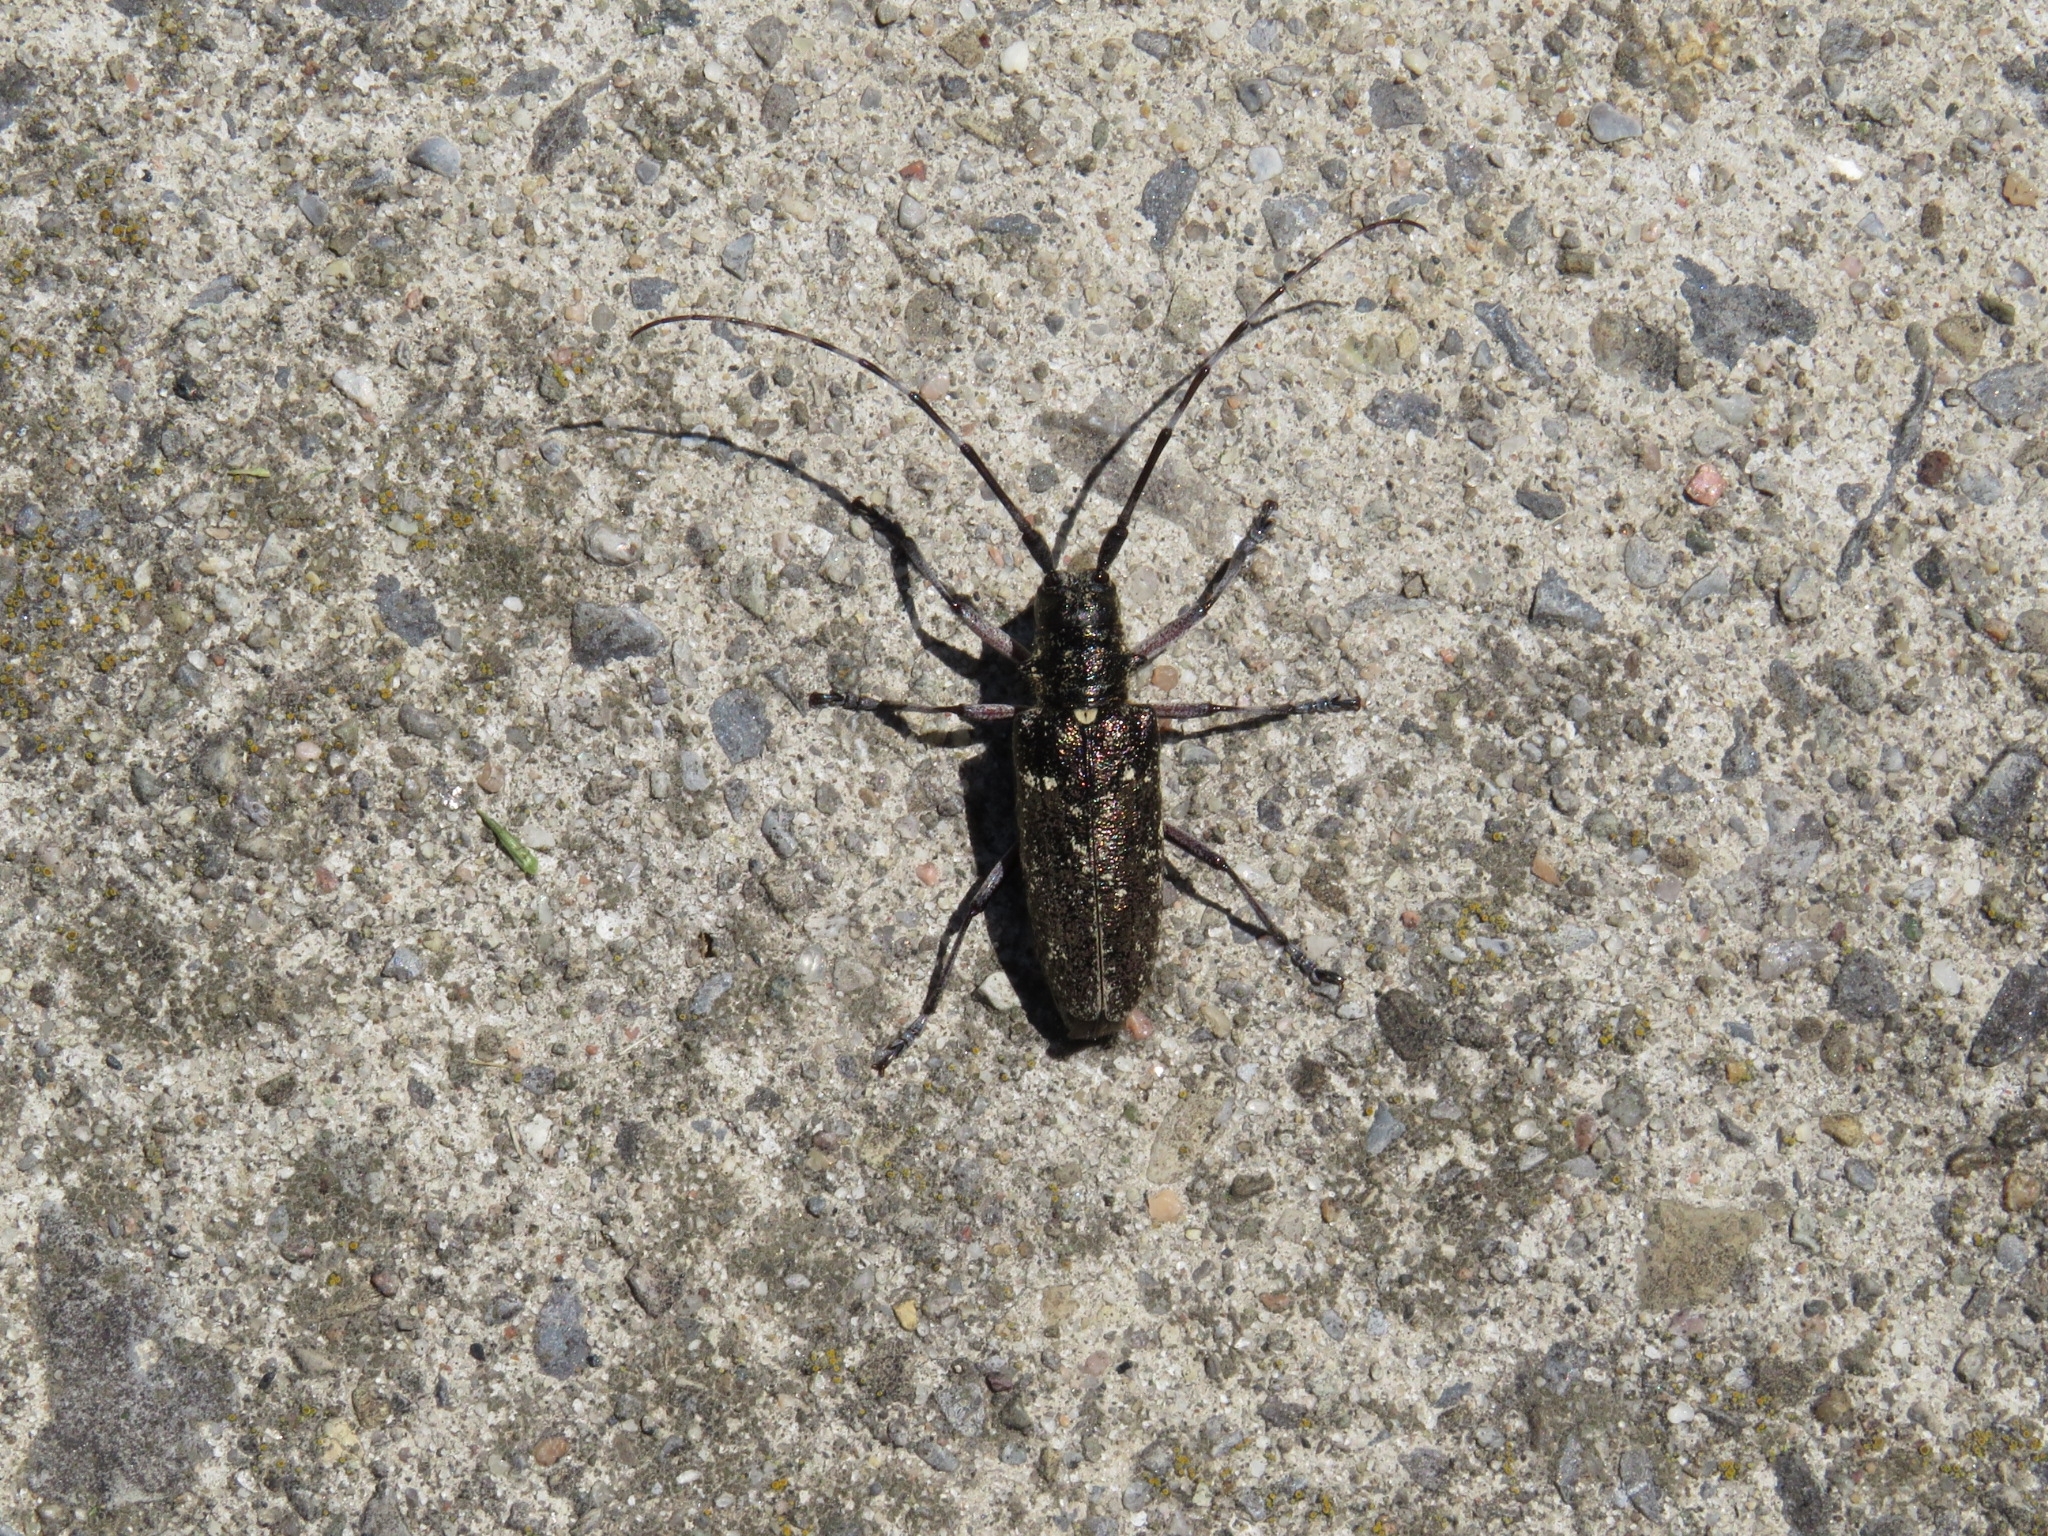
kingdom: Animalia
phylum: Arthropoda
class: Insecta
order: Coleoptera
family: Cerambycidae
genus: Monochamus
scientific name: Monochamus scutellatus
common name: White-spotted sawyer beetle
